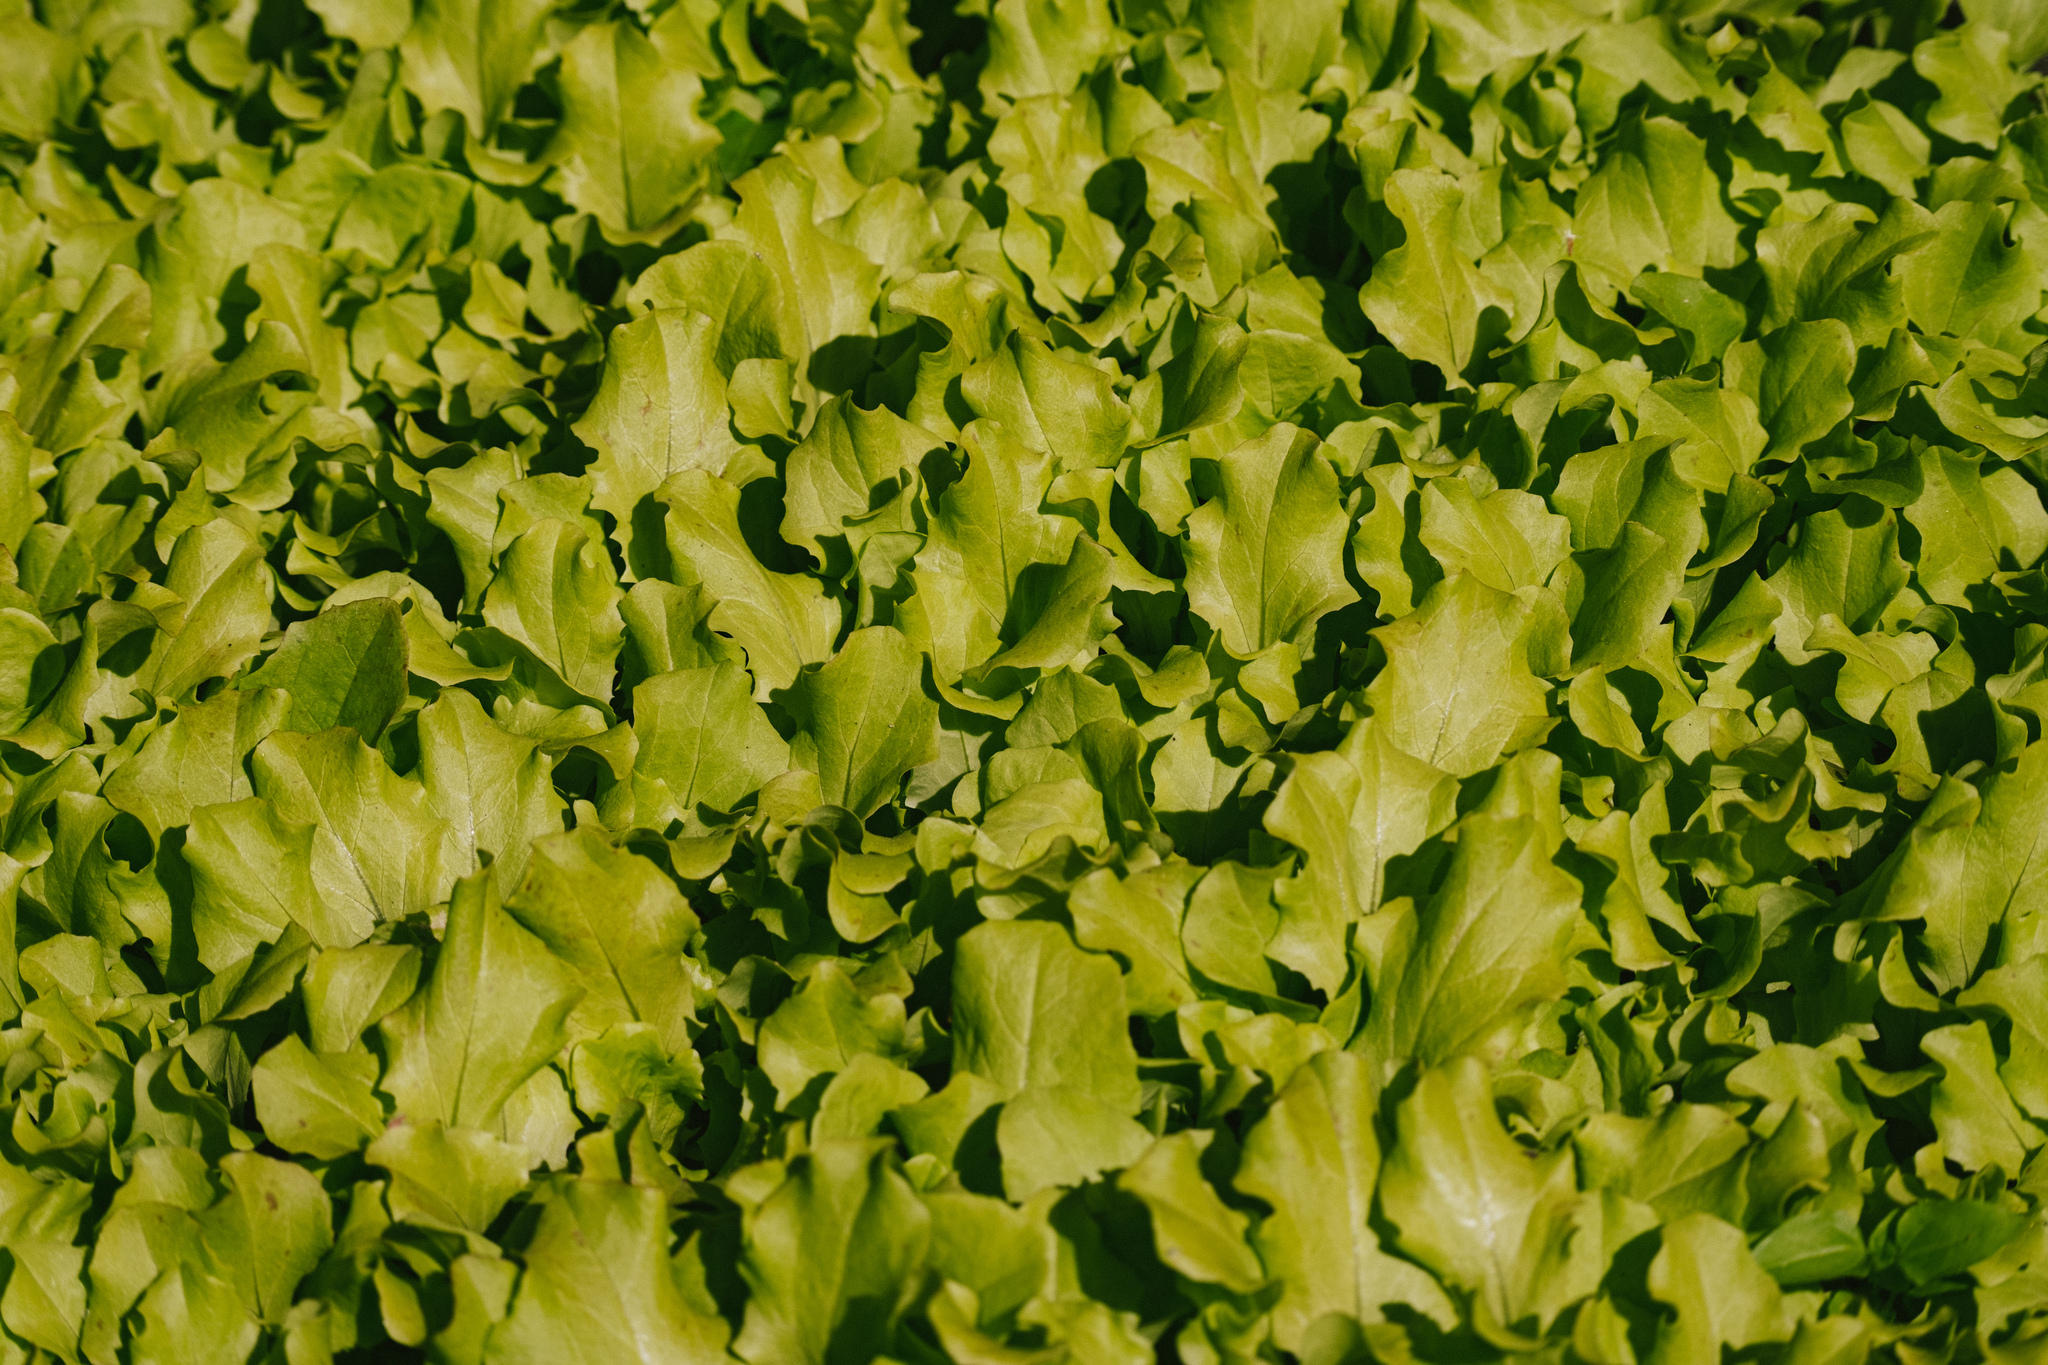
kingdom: Plantae
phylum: Tracheophyta
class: Magnoliopsida
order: Asterales
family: Asteraceae
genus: Lactuca
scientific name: Lactuca sativa
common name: Garden lettuce
